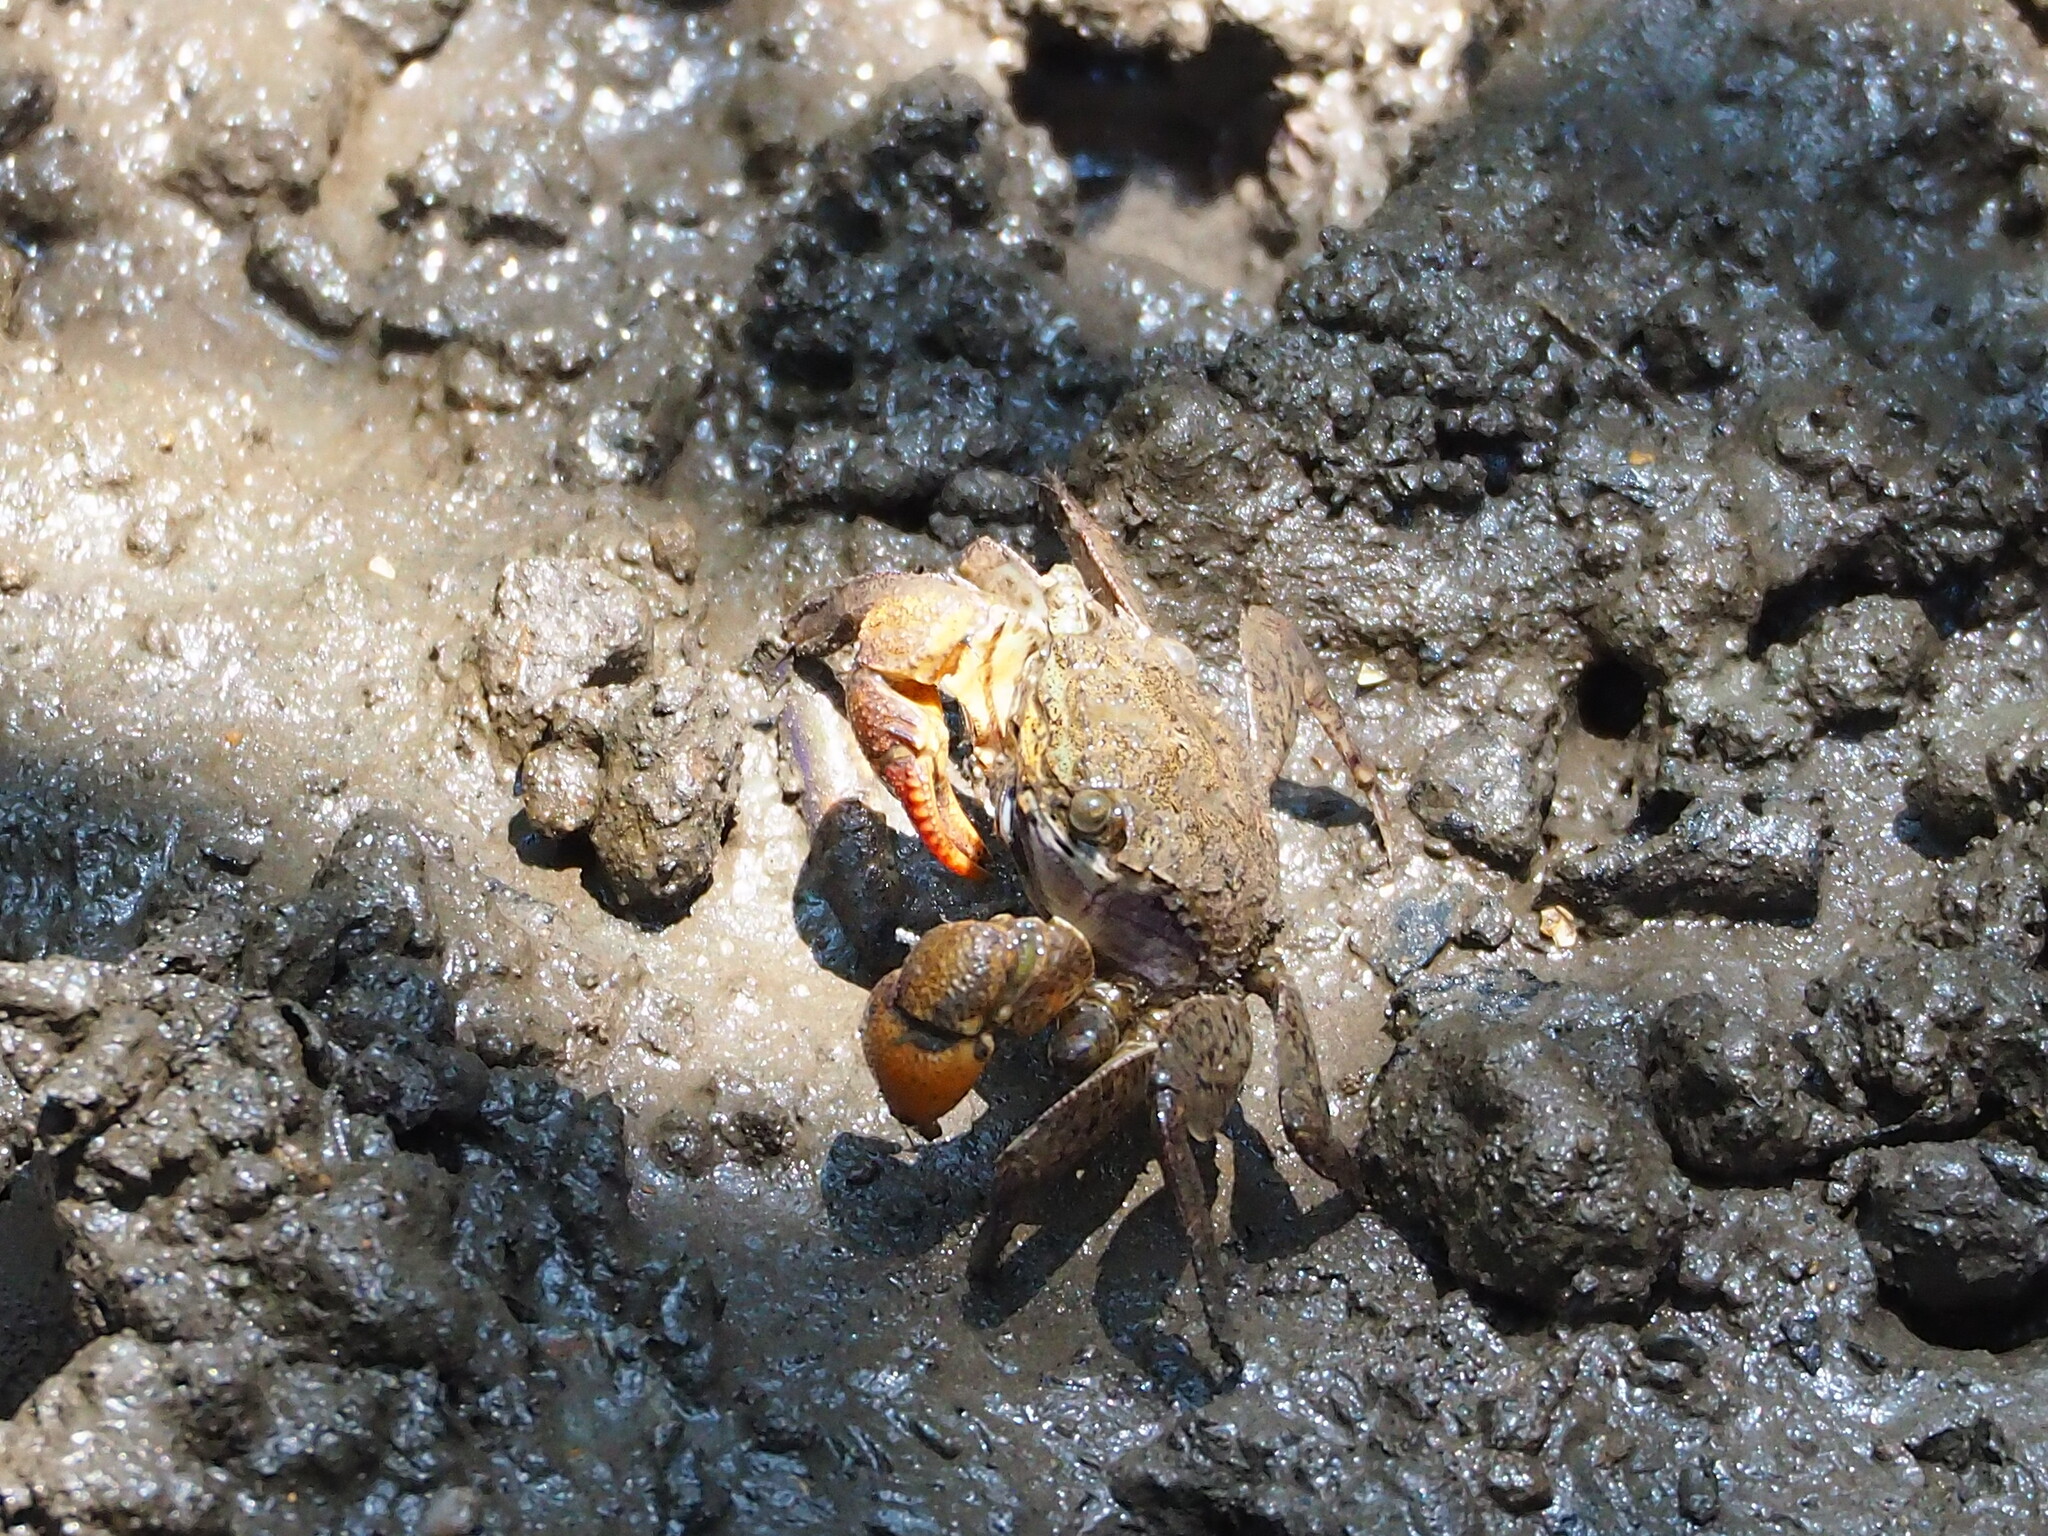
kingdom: Animalia
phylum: Arthropoda
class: Malacostraca
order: Decapoda
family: Sesarmidae
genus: Parasesarma
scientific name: Parasesarma insulare
